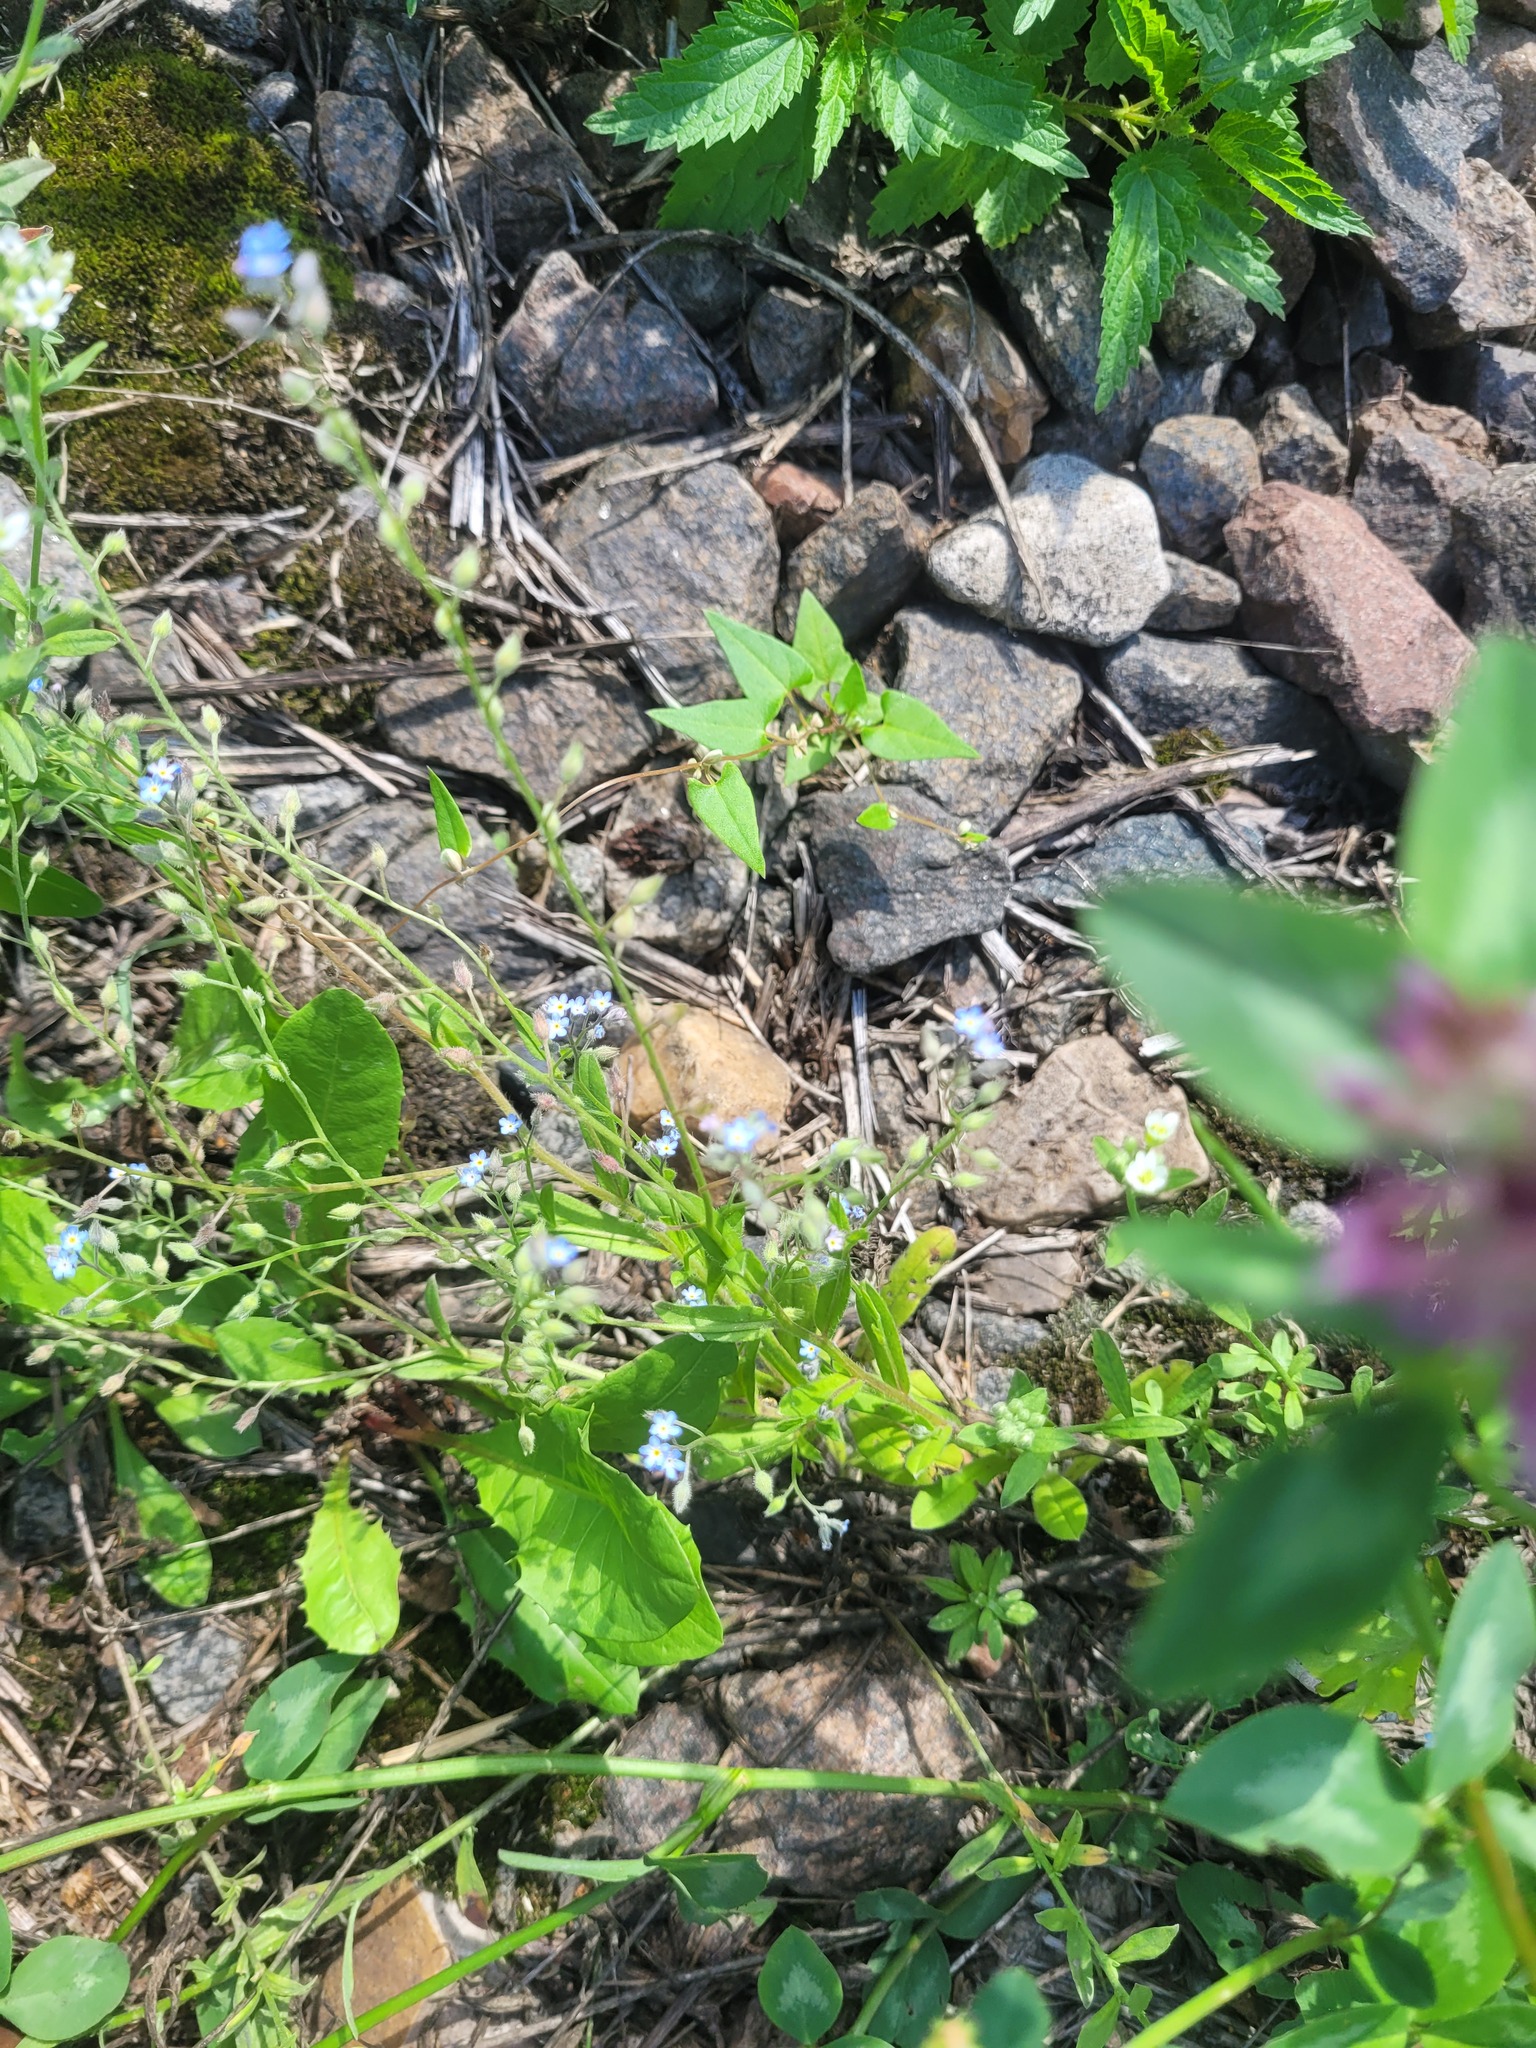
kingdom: Plantae
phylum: Tracheophyta
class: Magnoliopsida
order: Boraginales
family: Boraginaceae
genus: Myosotis
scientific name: Myosotis arvensis
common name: Field forget-me-not
